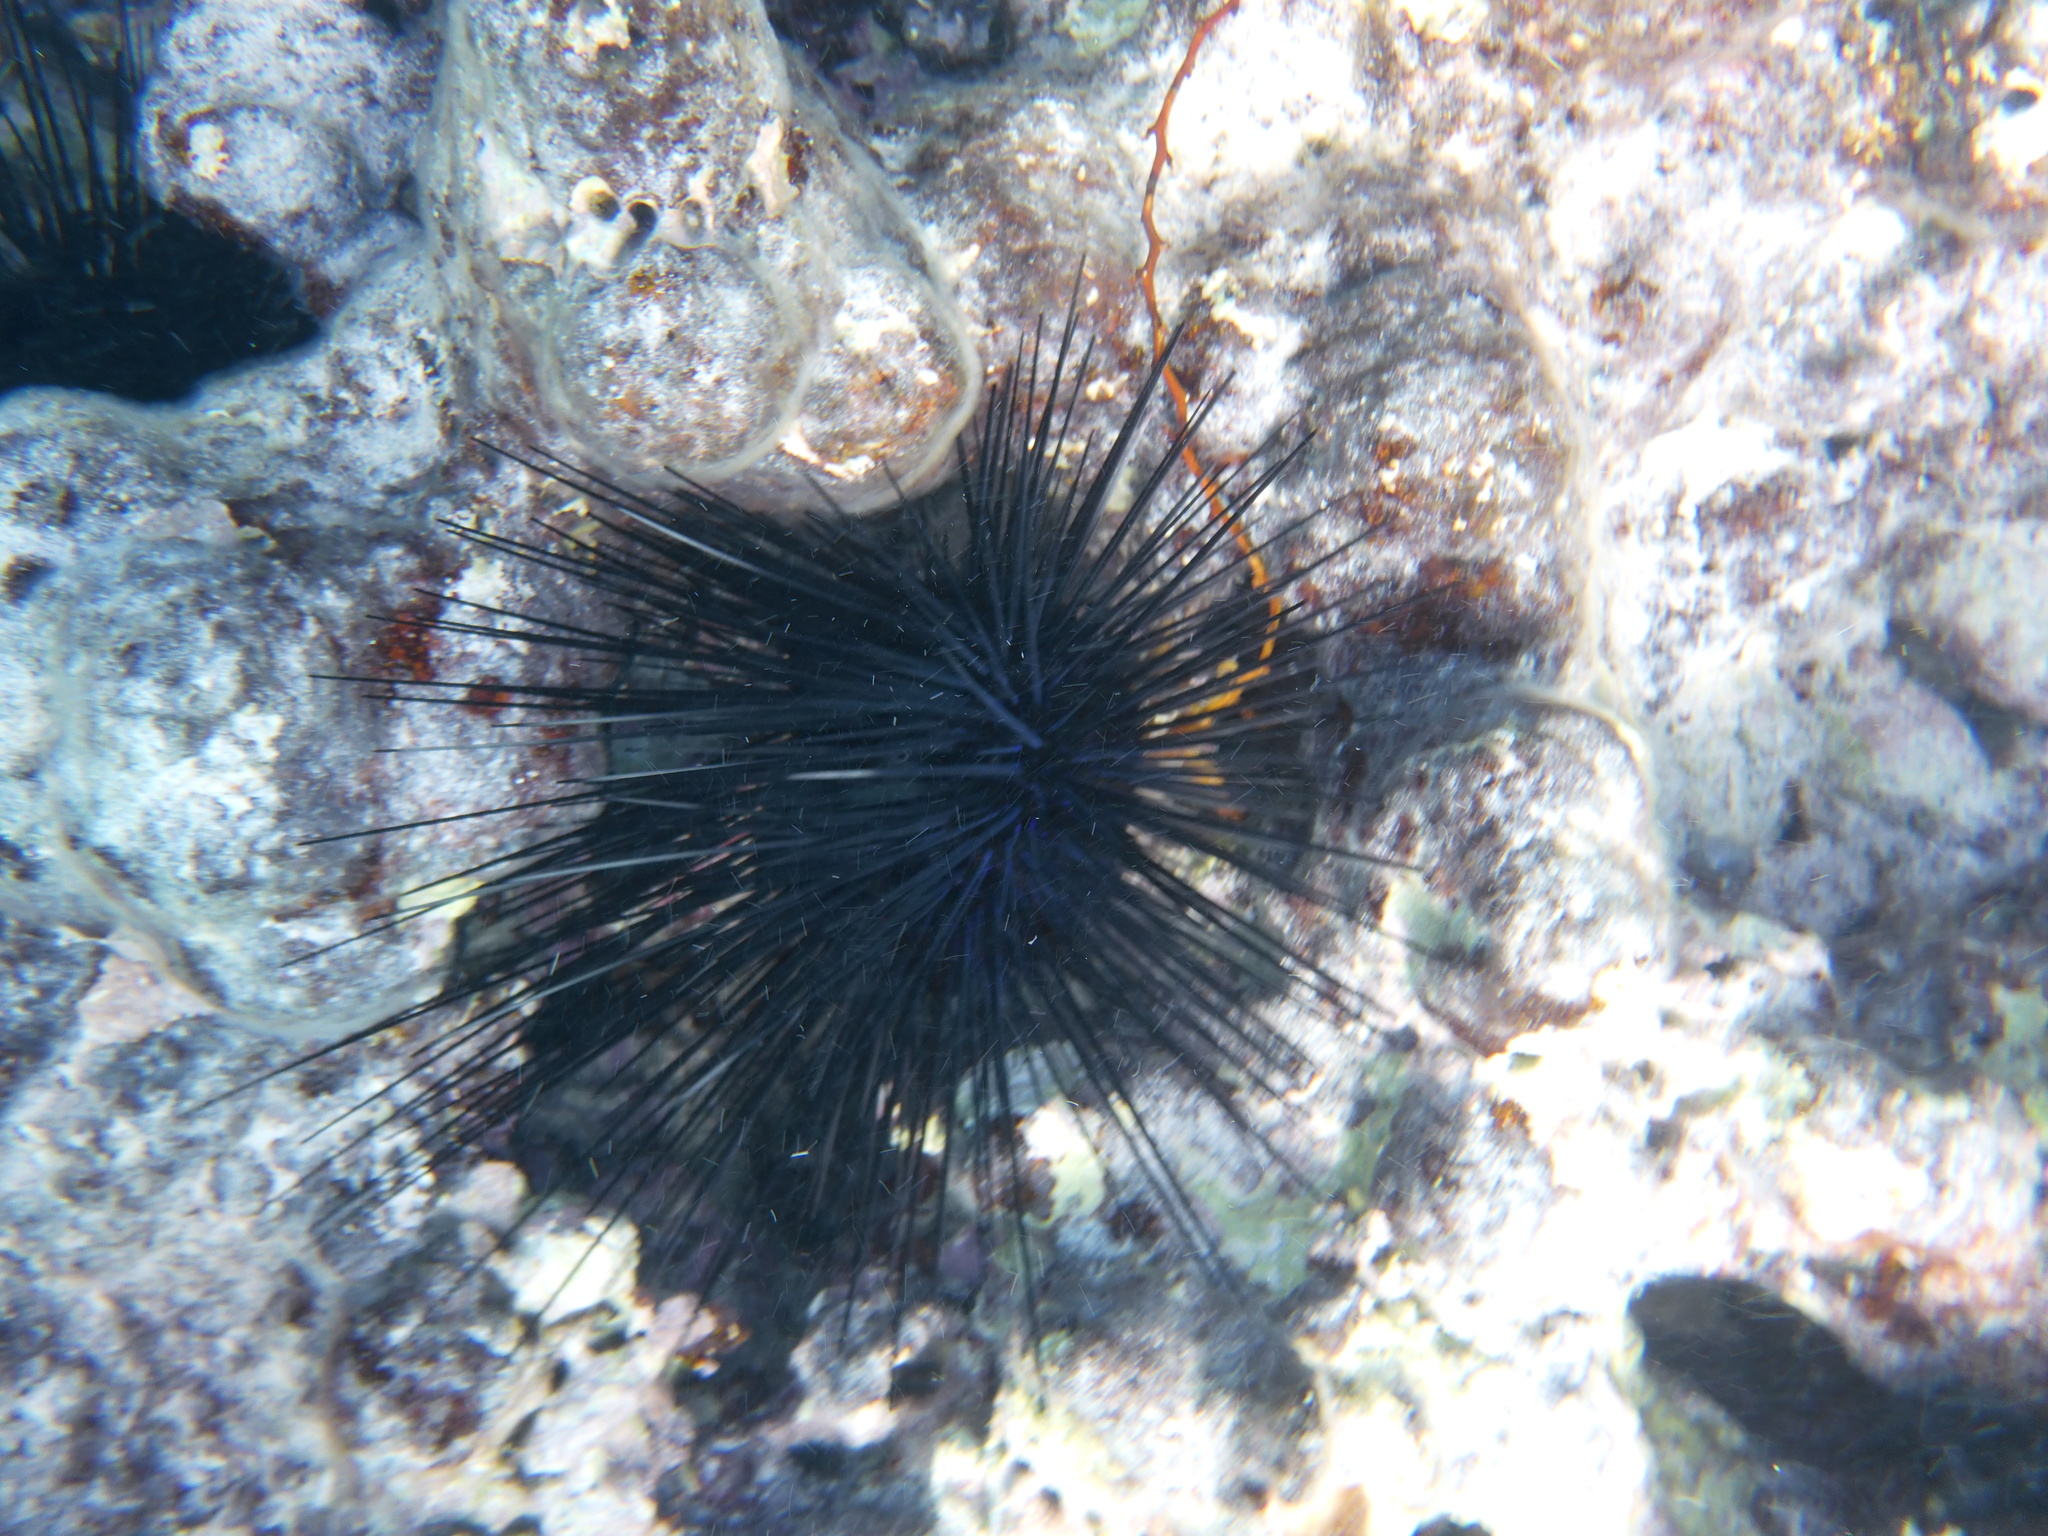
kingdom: Animalia
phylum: Echinodermata
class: Echinoidea
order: Diadematoida
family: Diadematidae
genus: Diadema
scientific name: Diadema antillarum
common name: Spiny urchin
